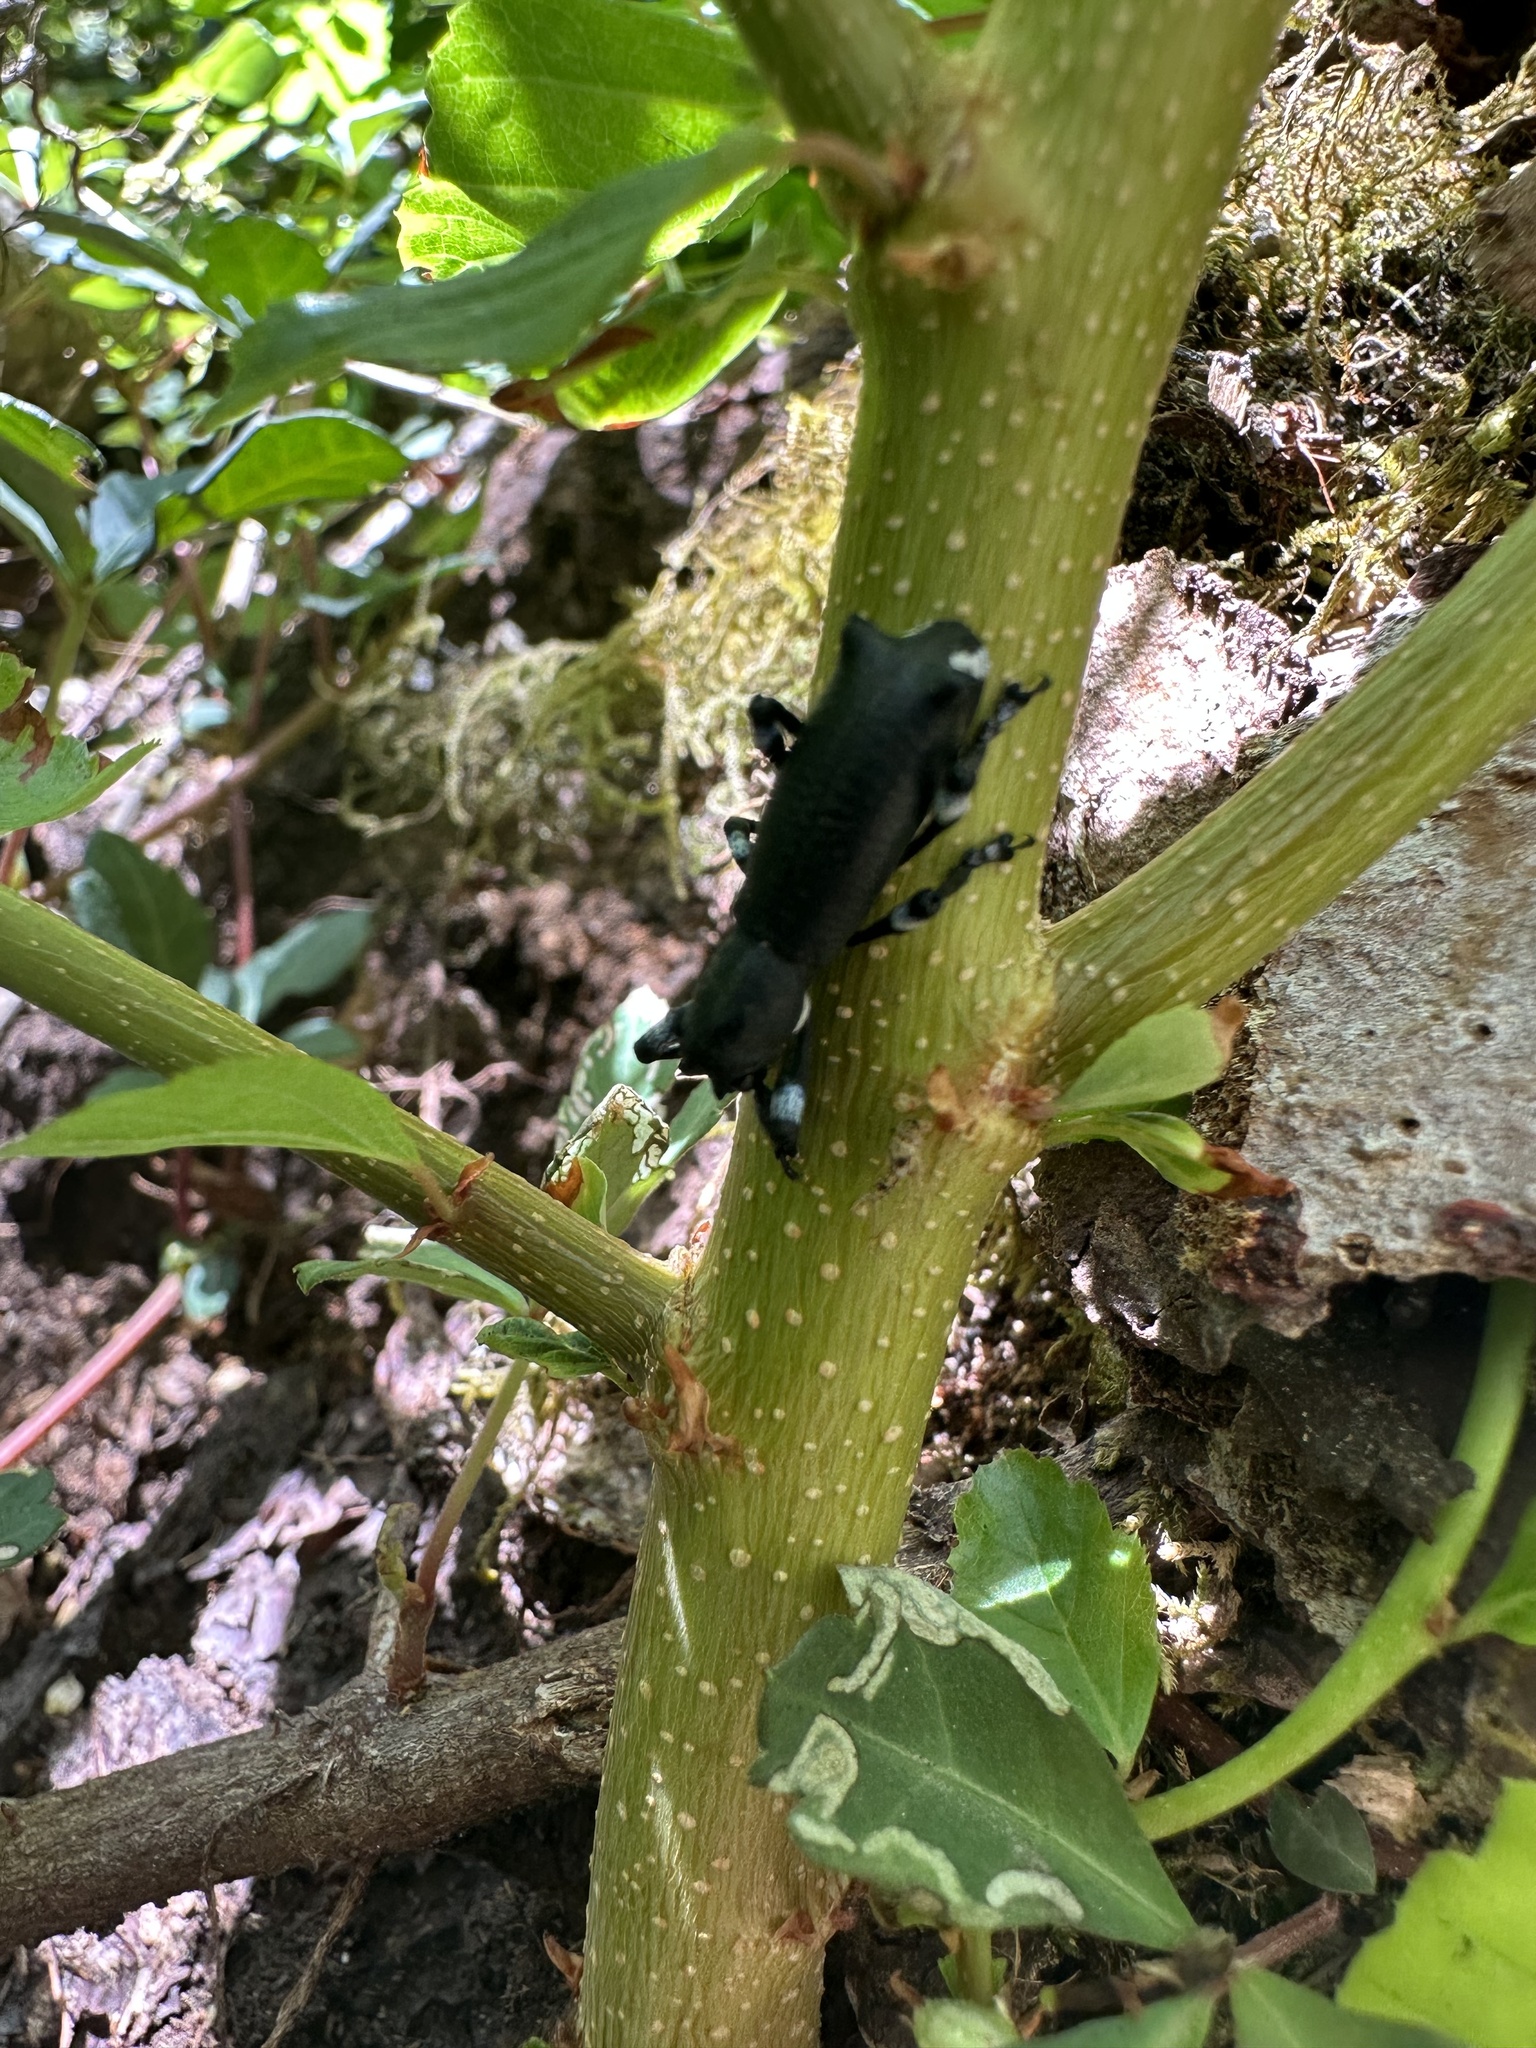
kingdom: Animalia
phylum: Arthropoda
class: Insecta
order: Coleoptera
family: Curculionidae
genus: Aegorhinus
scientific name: Aegorhinus
